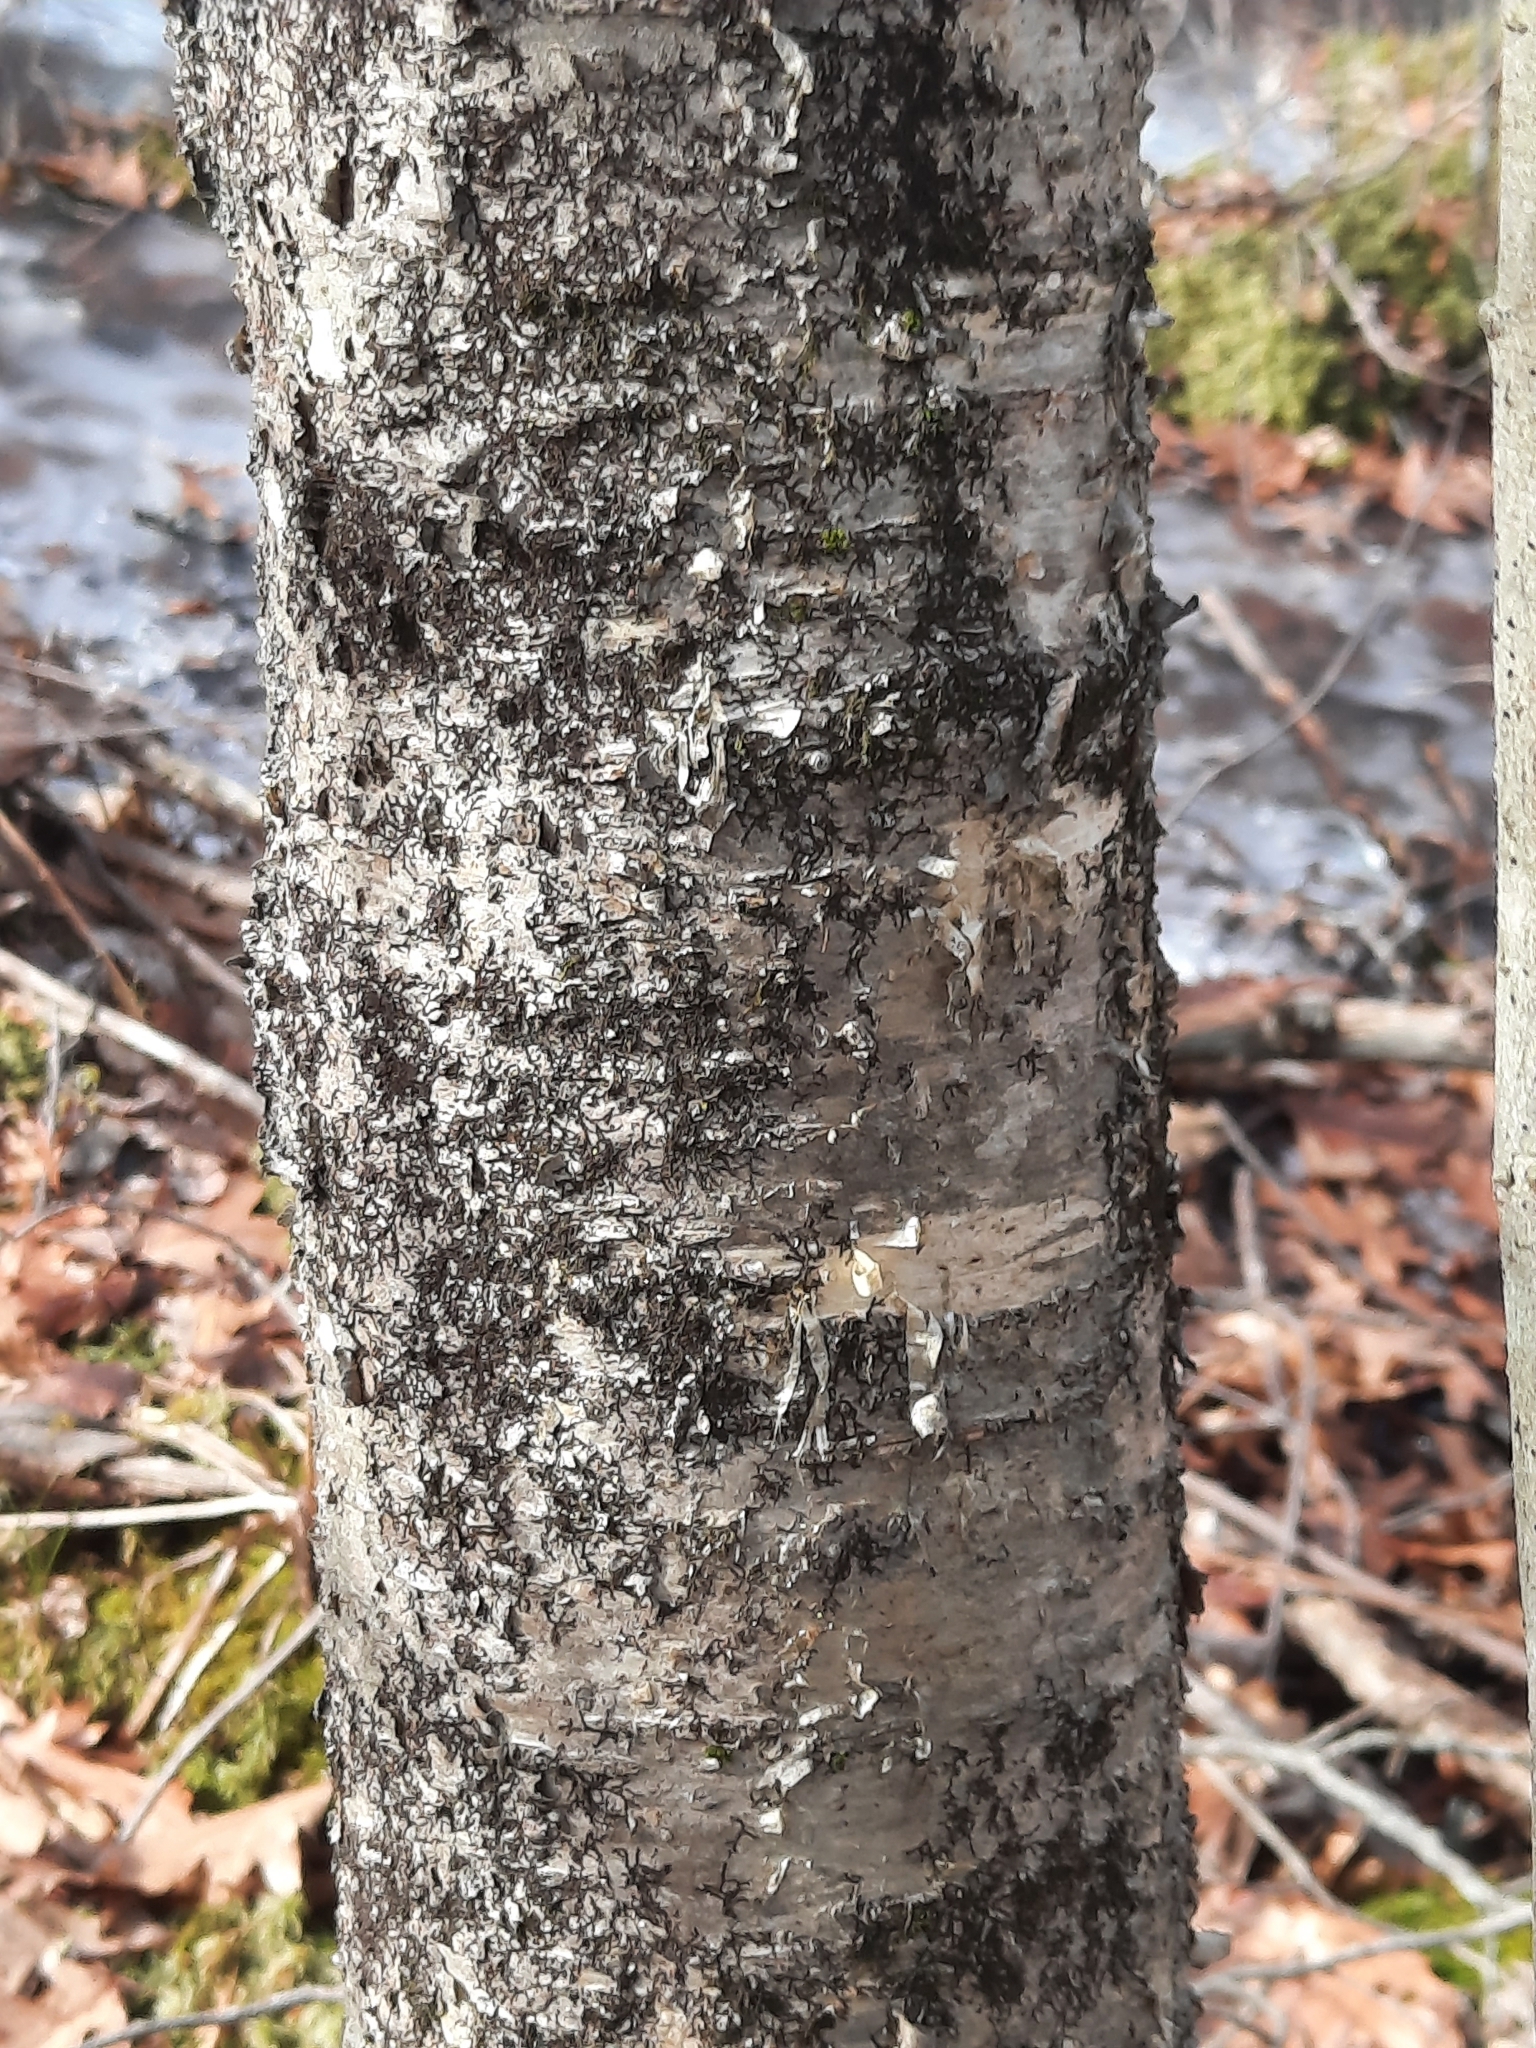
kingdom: Plantae
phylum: Tracheophyta
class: Magnoliopsida
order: Fagales
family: Betulaceae
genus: Betula
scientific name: Betula alleghaniensis
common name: Yellow birch
